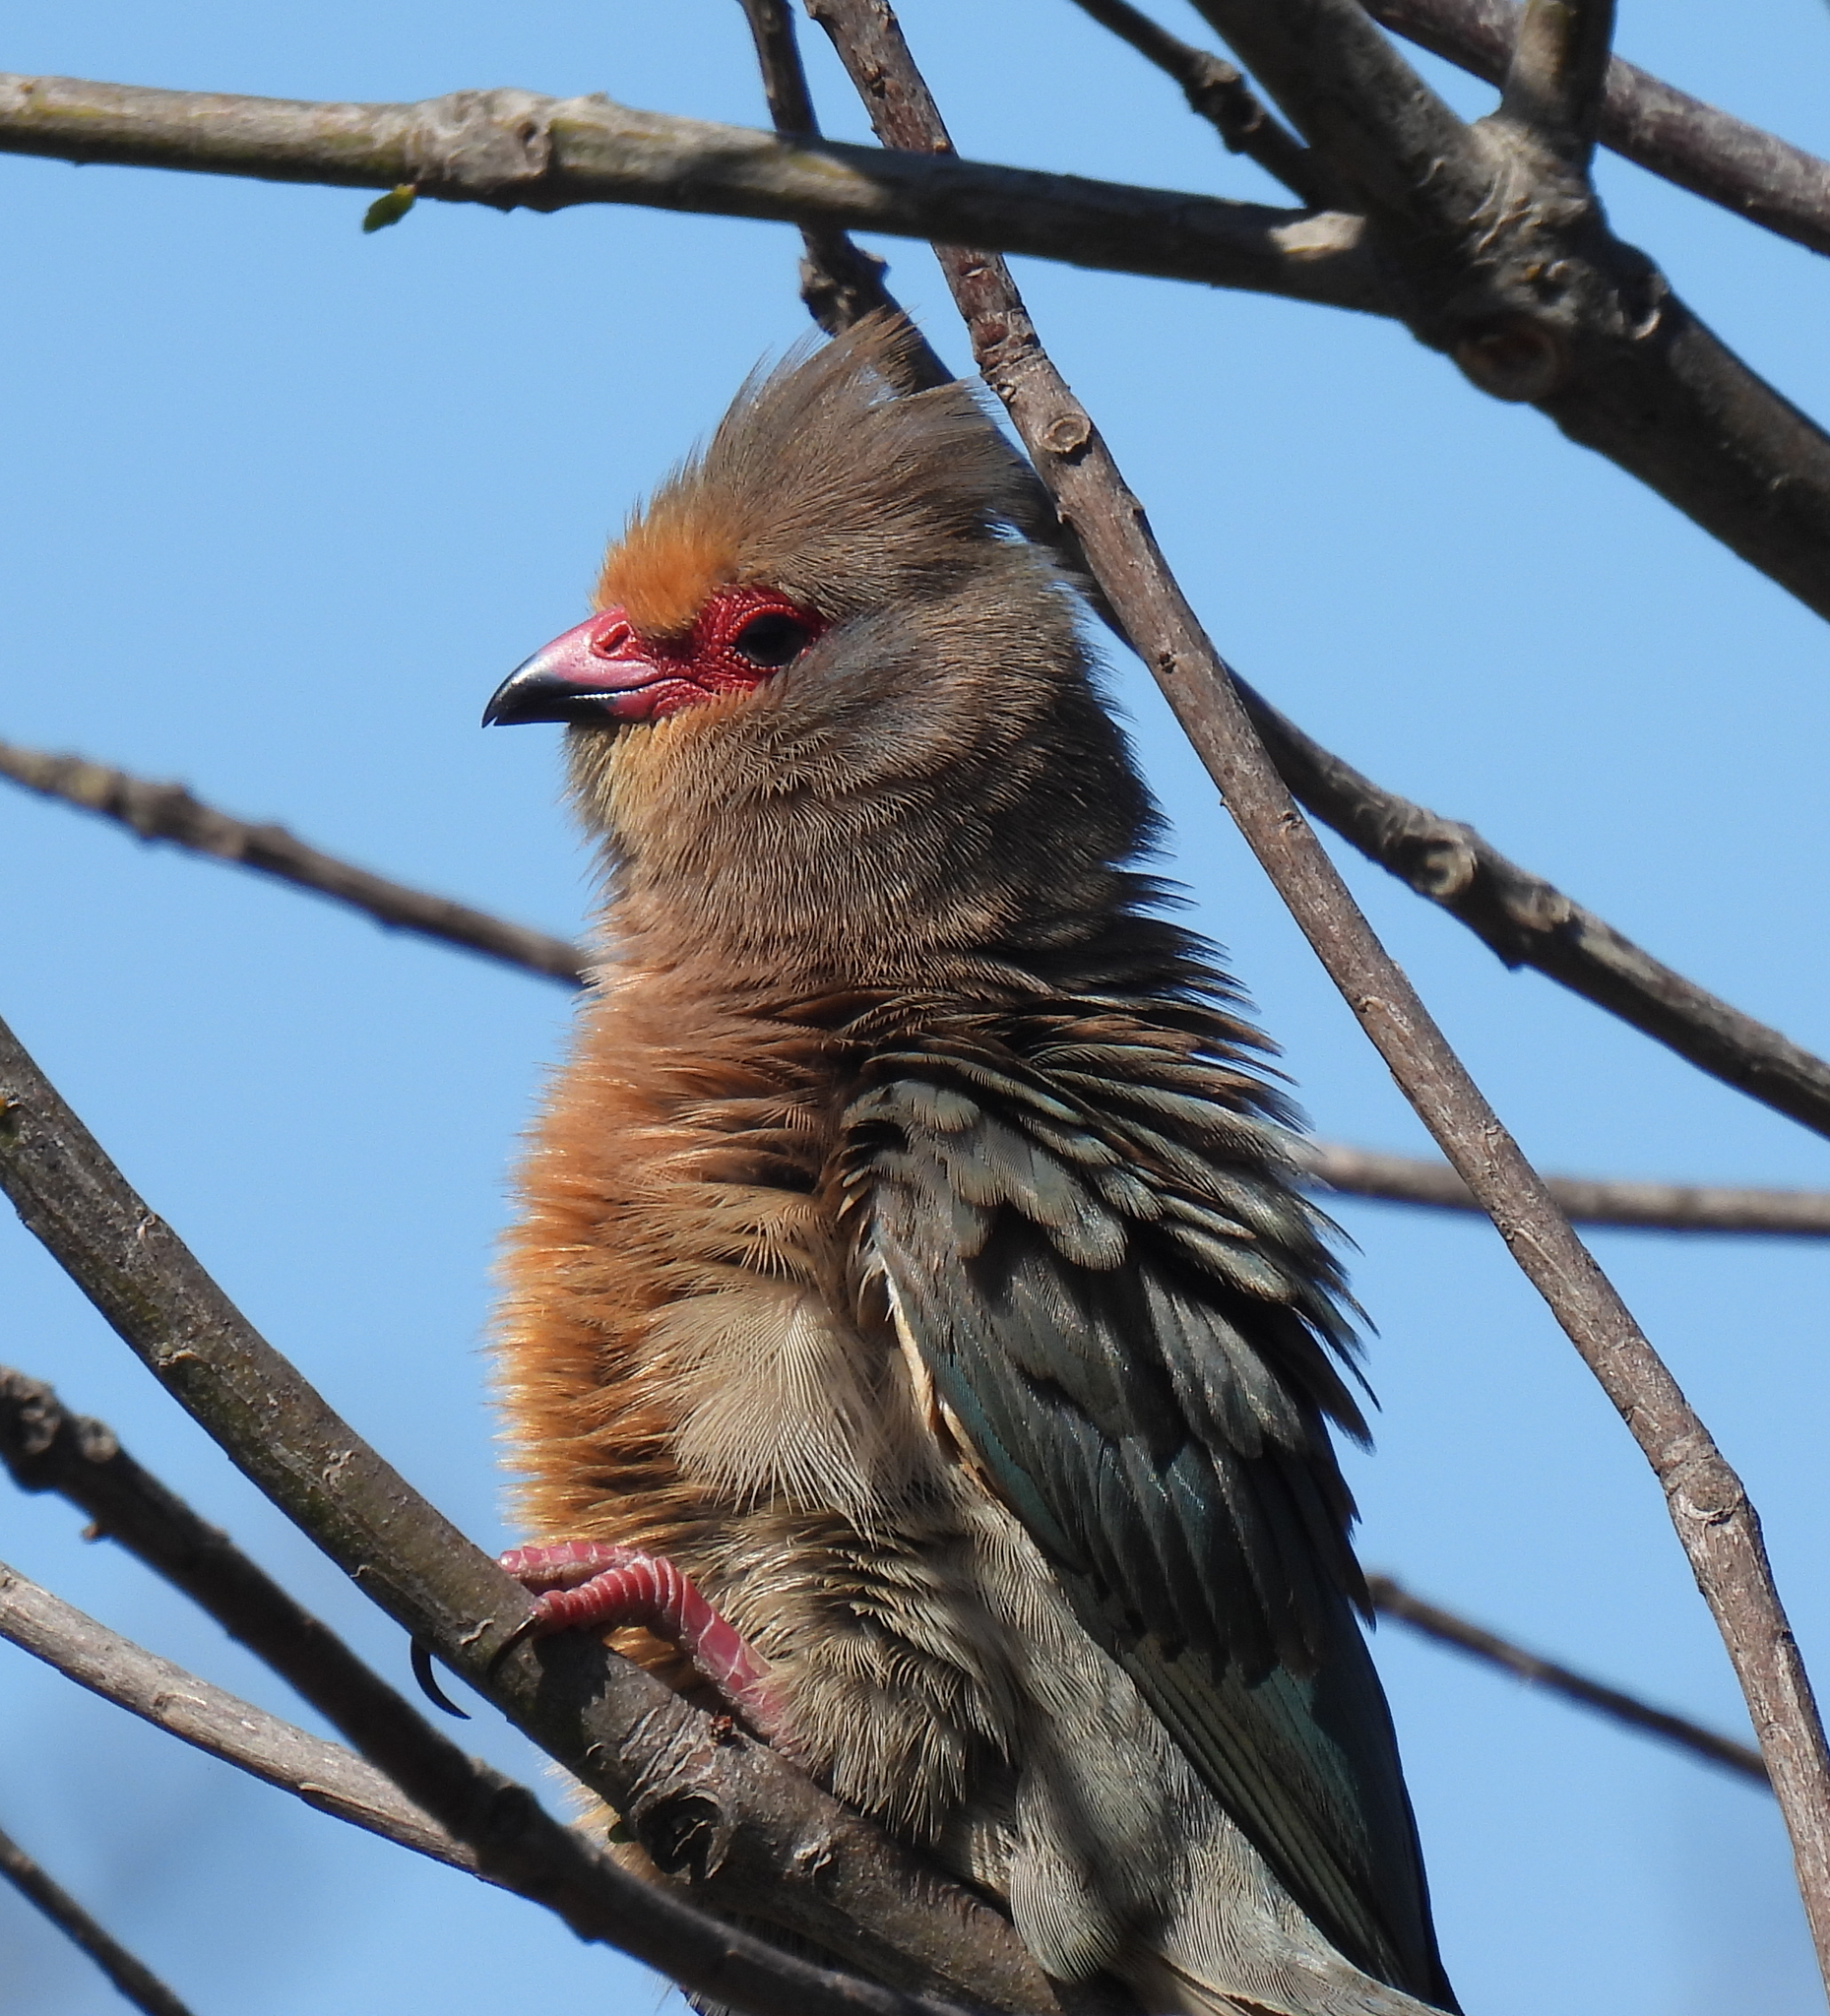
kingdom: Animalia
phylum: Chordata
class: Aves
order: Coliiformes
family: Coliidae
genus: Urocolius
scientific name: Urocolius indicus
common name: Red-faced mousebird
